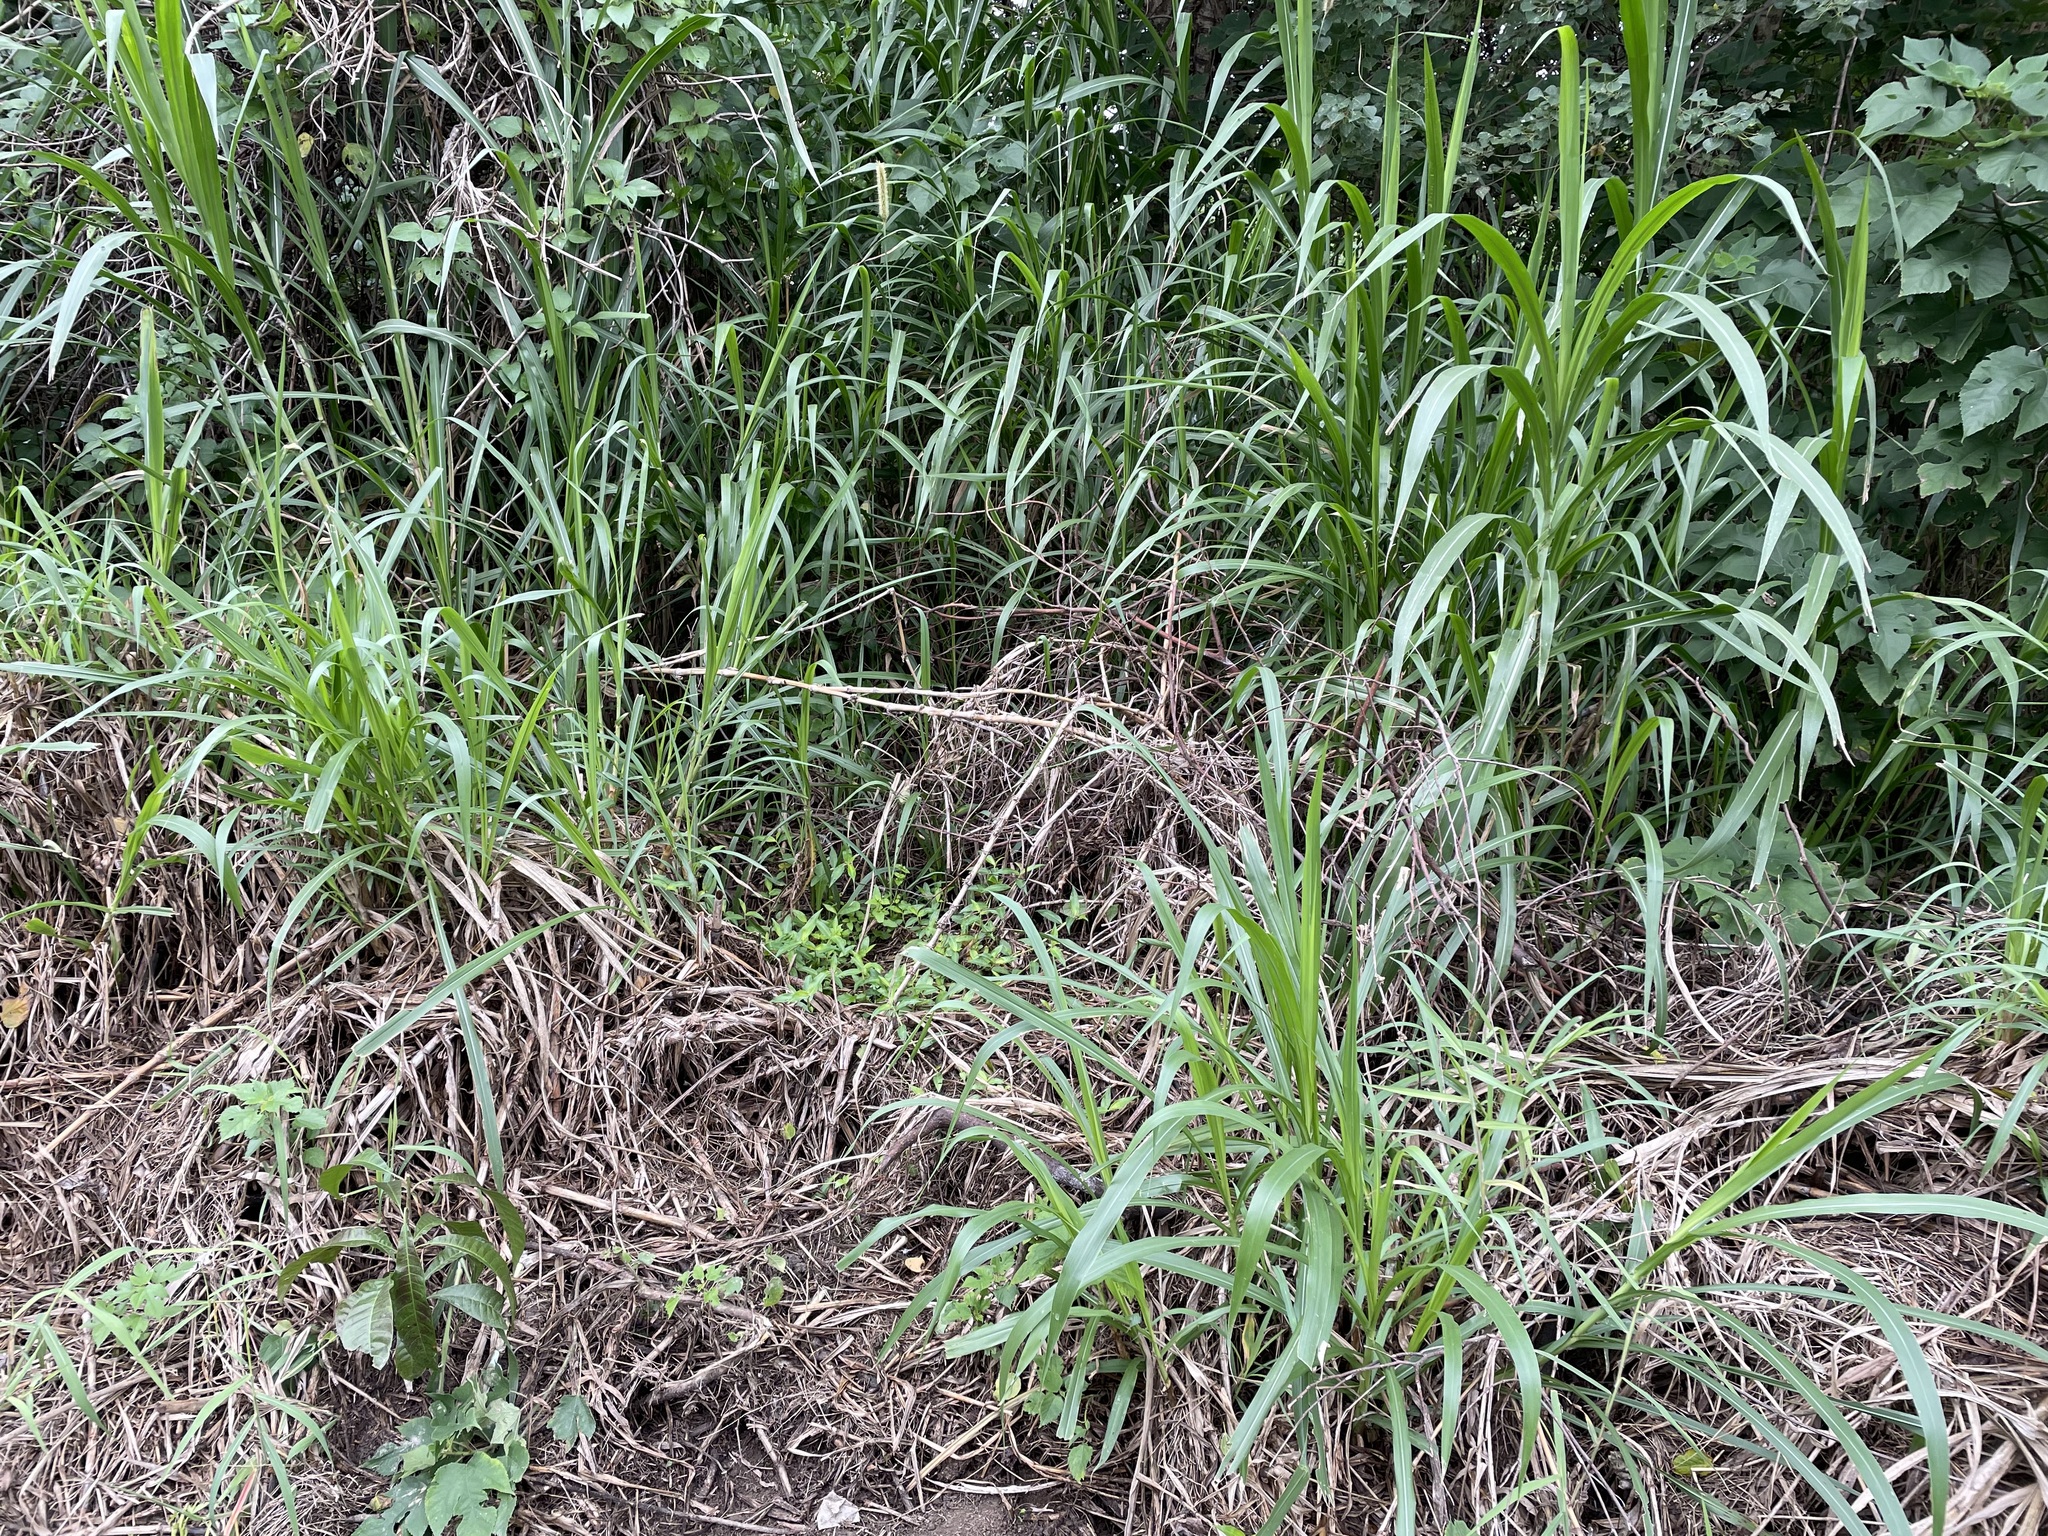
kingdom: Plantae
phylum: Tracheophyta
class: Liliopsida
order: Poales
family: Poaceae
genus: Cenchrus
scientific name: Cenchrus purpureus
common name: Elephant grass
